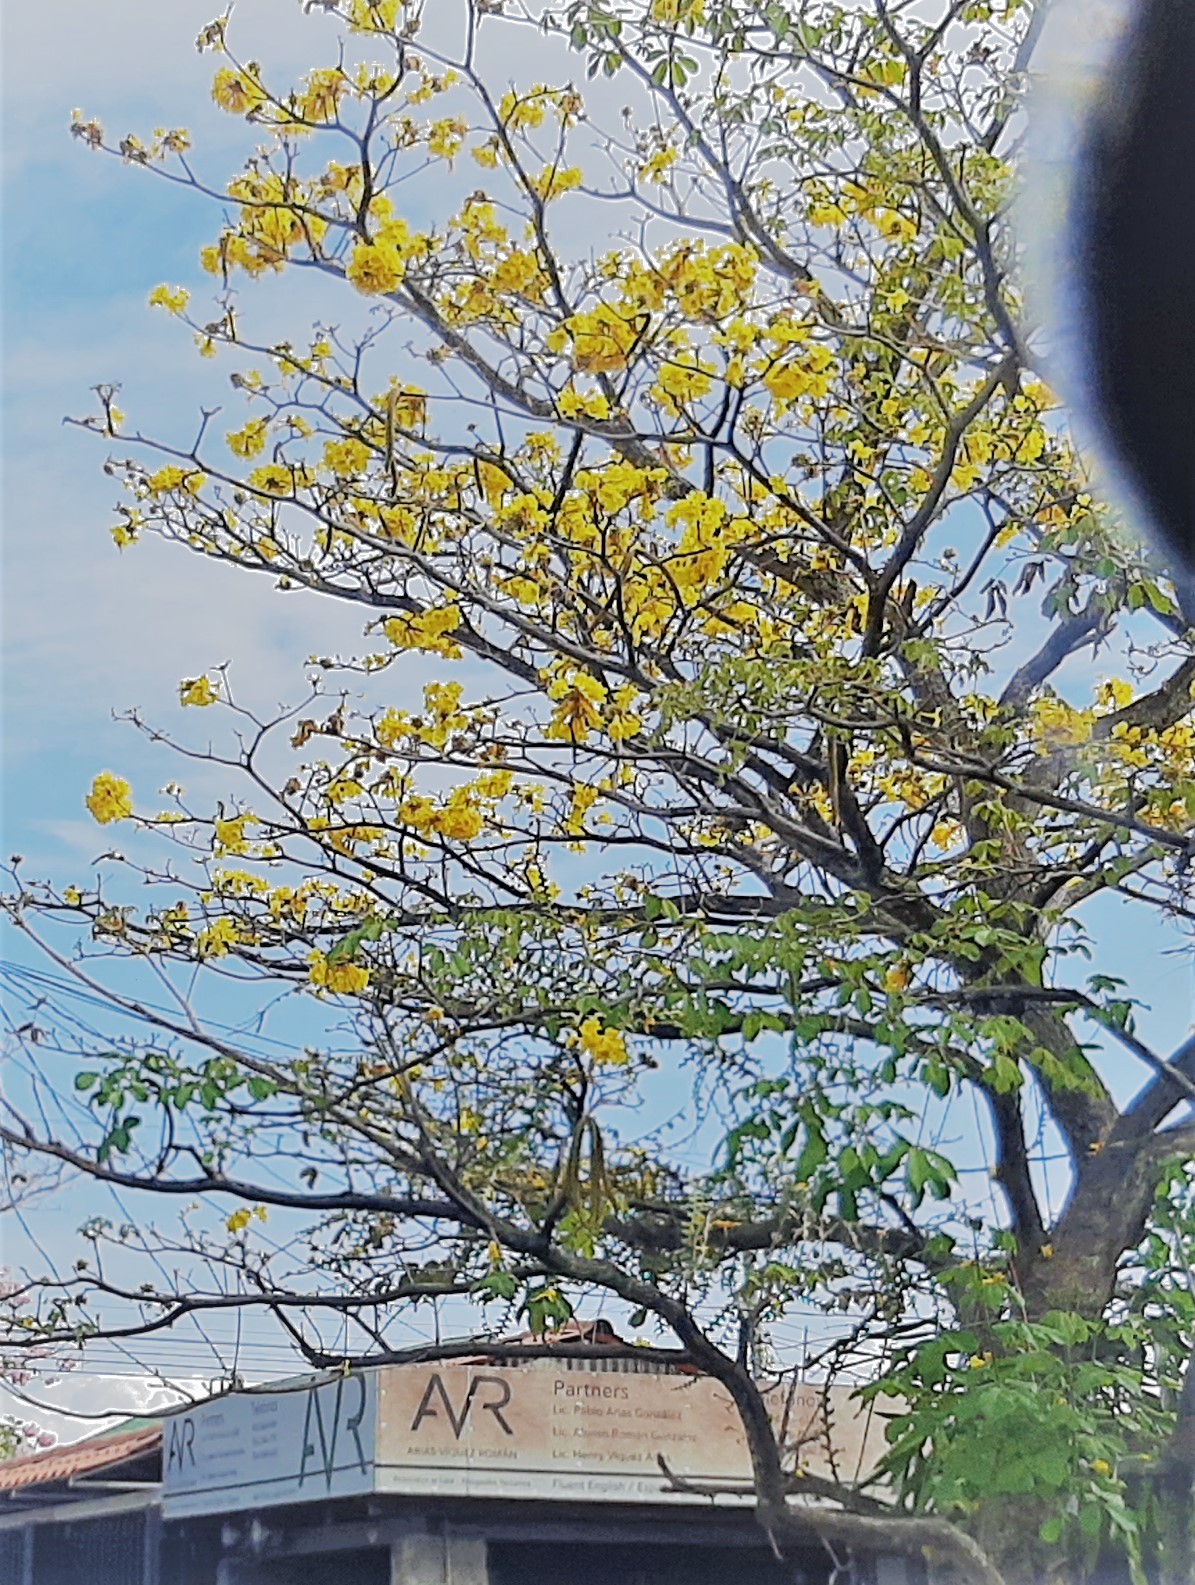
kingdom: Plantae
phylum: Tracheophyta
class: Magnoliopsida
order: Lamiales
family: Bignoniaceae
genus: Handroanthus
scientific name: Handroanthus ochraceus
